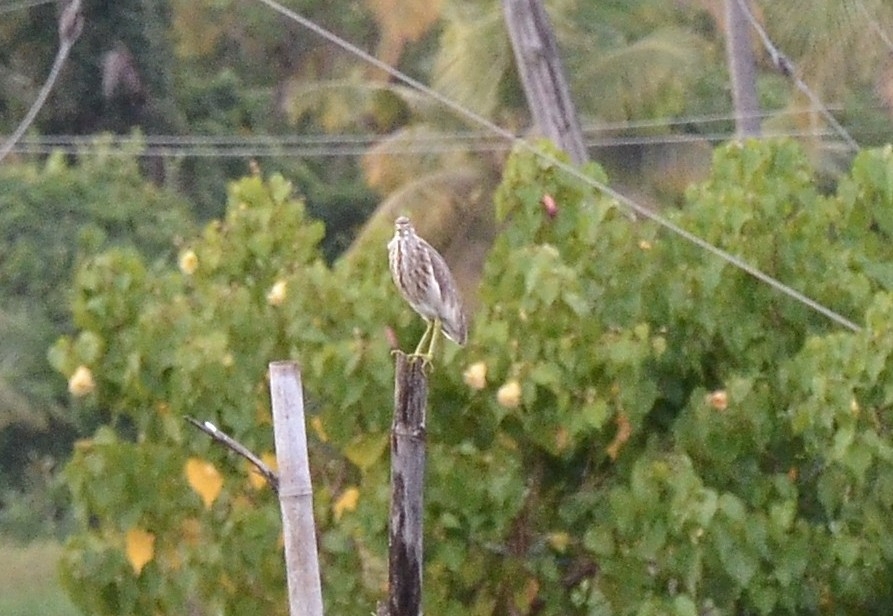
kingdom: Animalia
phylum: Chordata
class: Aves
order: Pelecaniformes
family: Ardeidae
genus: Ardeola
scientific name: Ardeola grayii
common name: Indian pond heron
